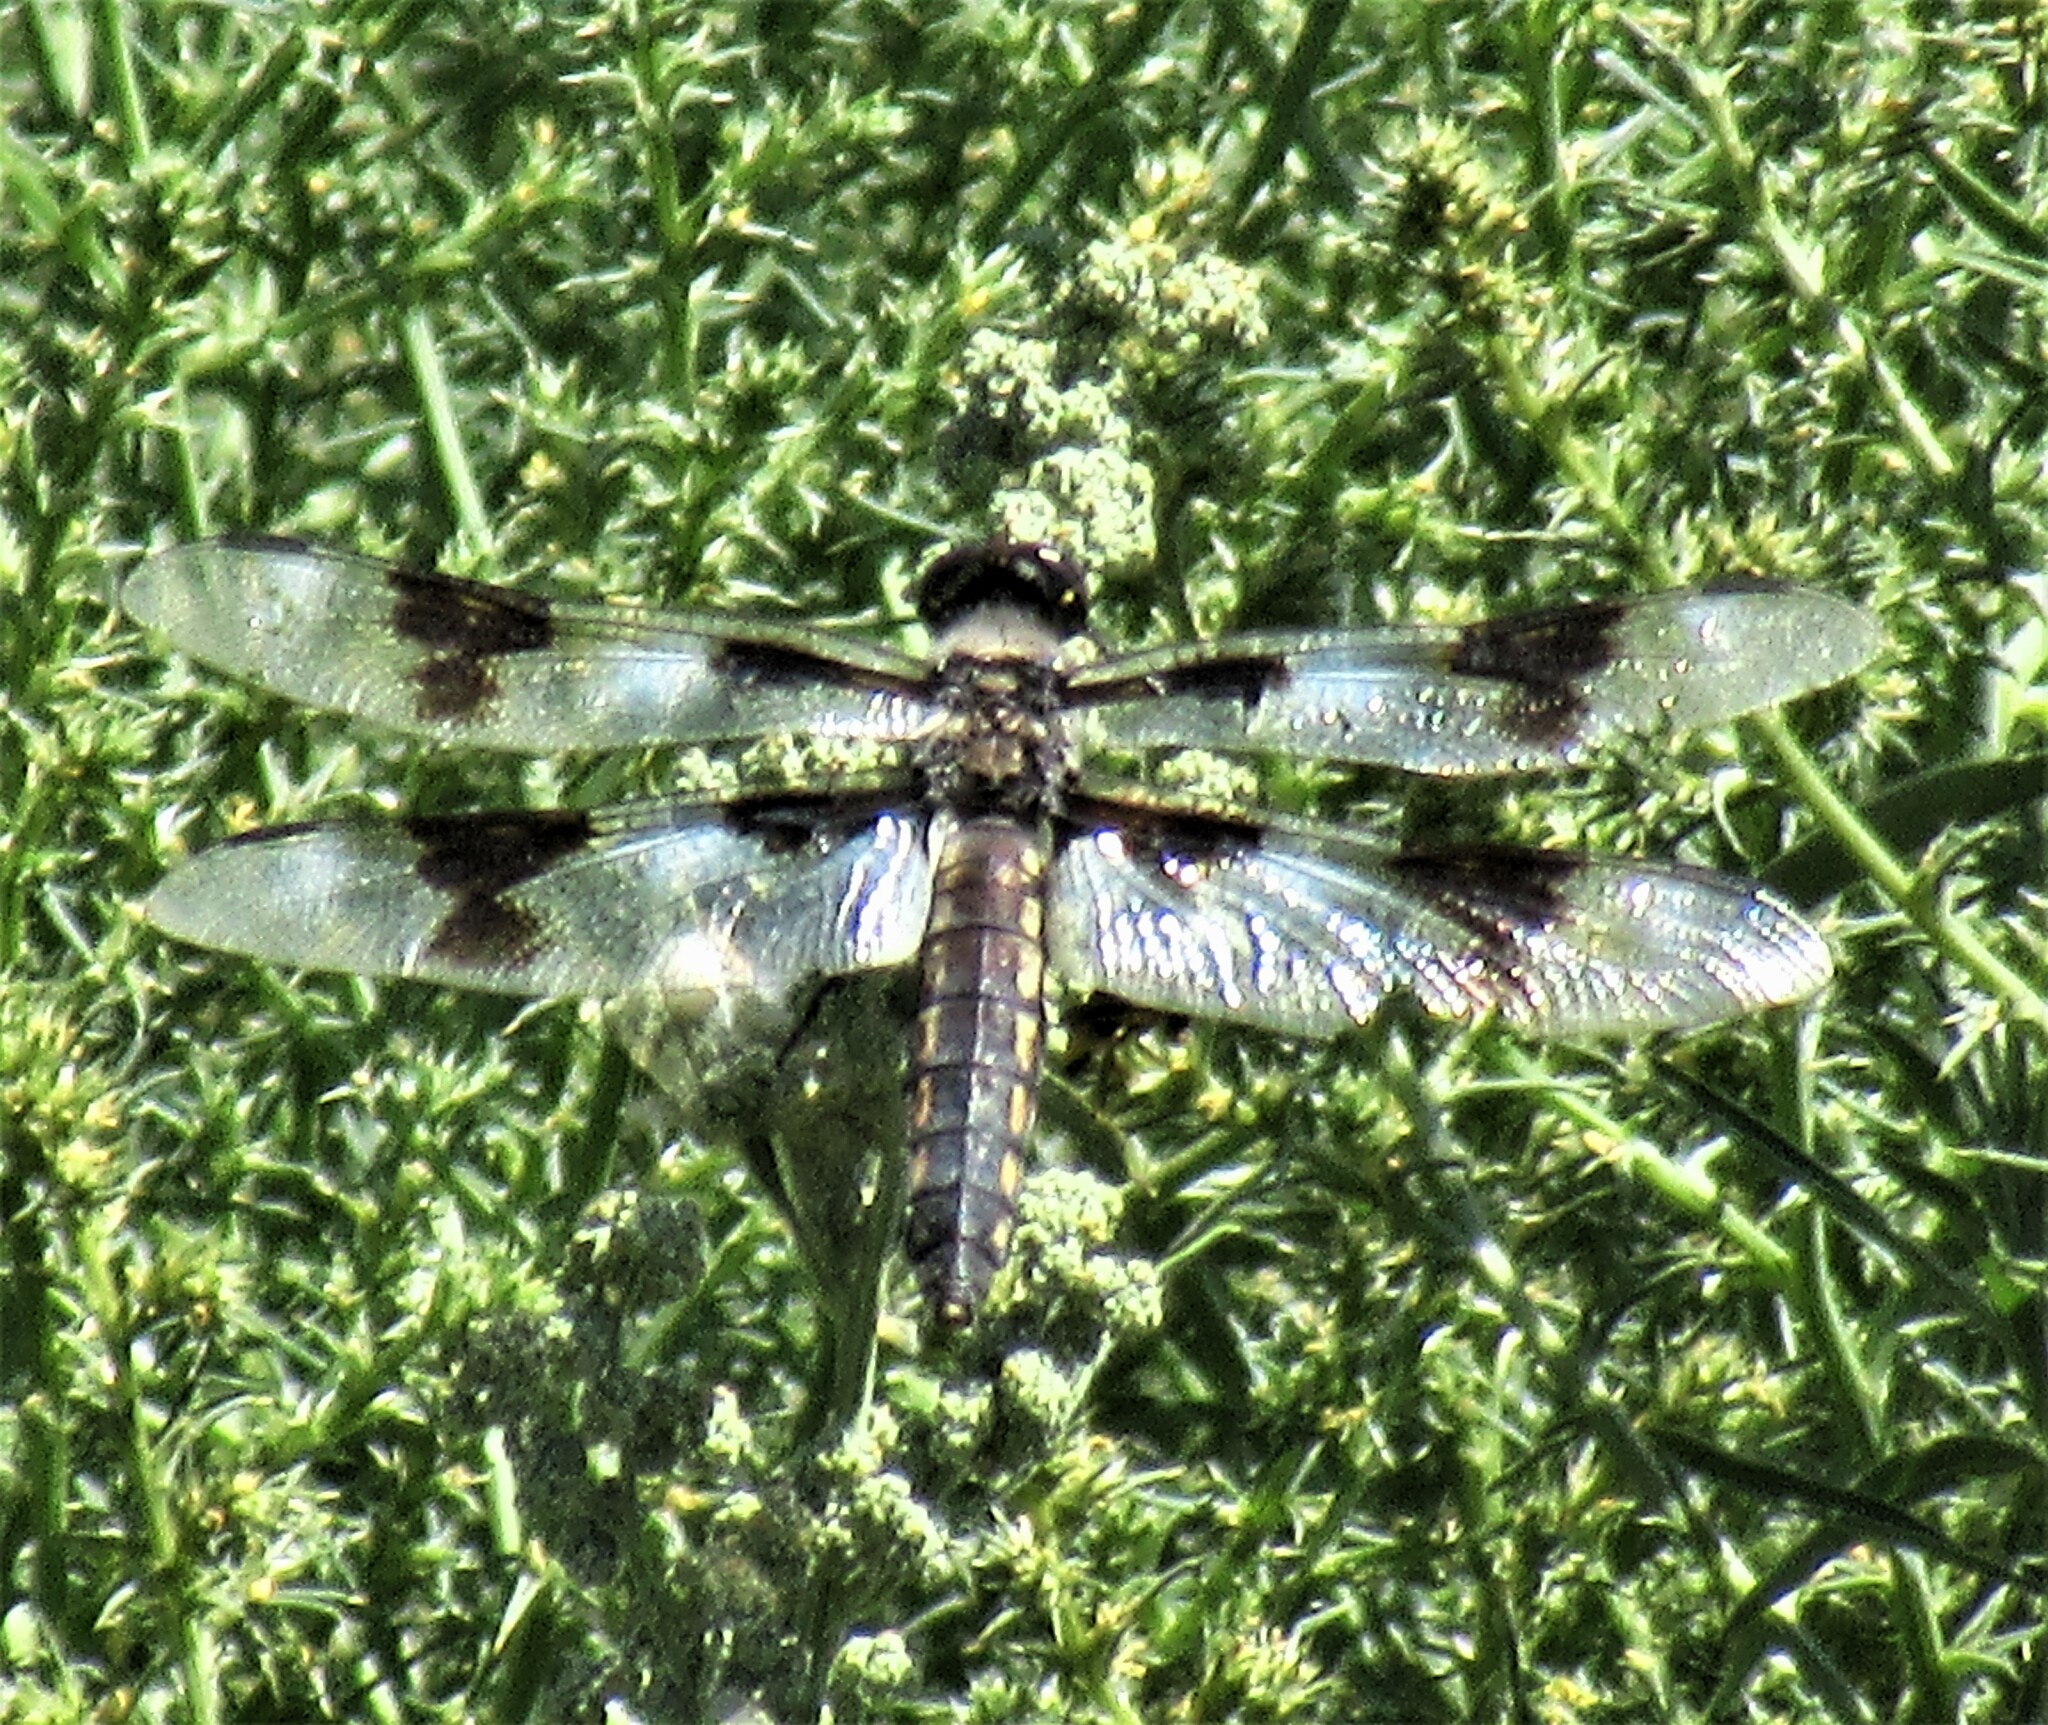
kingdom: Animalia
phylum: Arthropoda
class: Insecta
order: Odonata
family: Libellulidae
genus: Libellula
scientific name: Libellula forensis
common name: Eight-spotted skimmer
